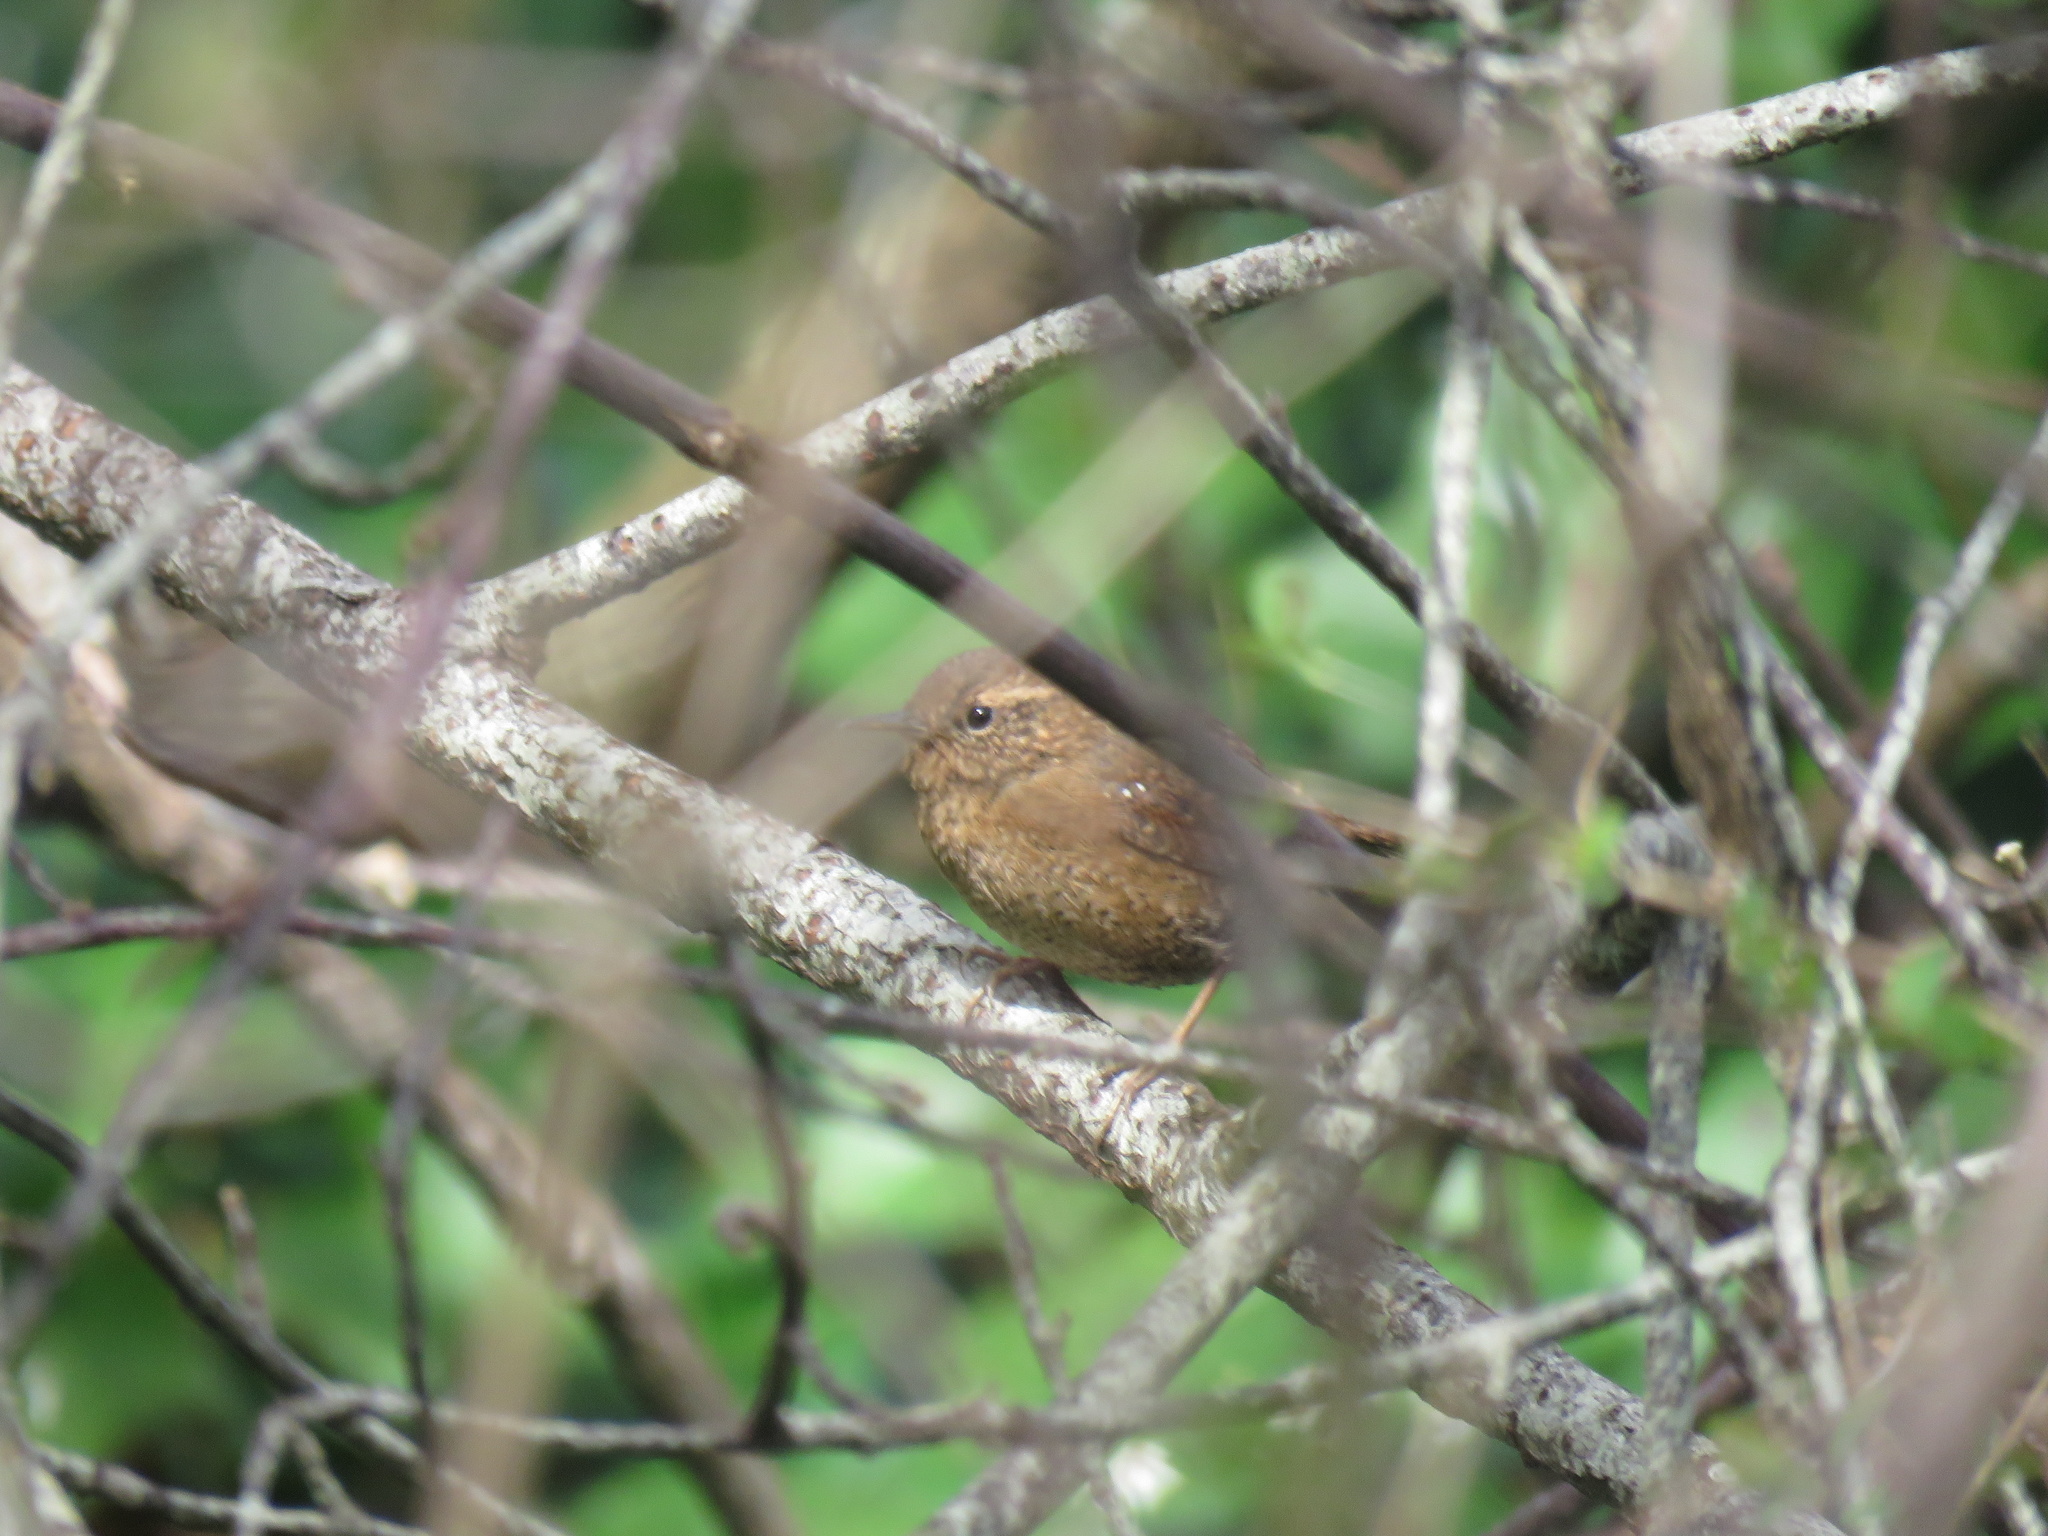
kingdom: Animalia
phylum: Chordata
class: Aves
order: Passeriformes
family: Troglodytidae
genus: Troglodytes
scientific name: Troglodytes pacificus
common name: Pacific wren
